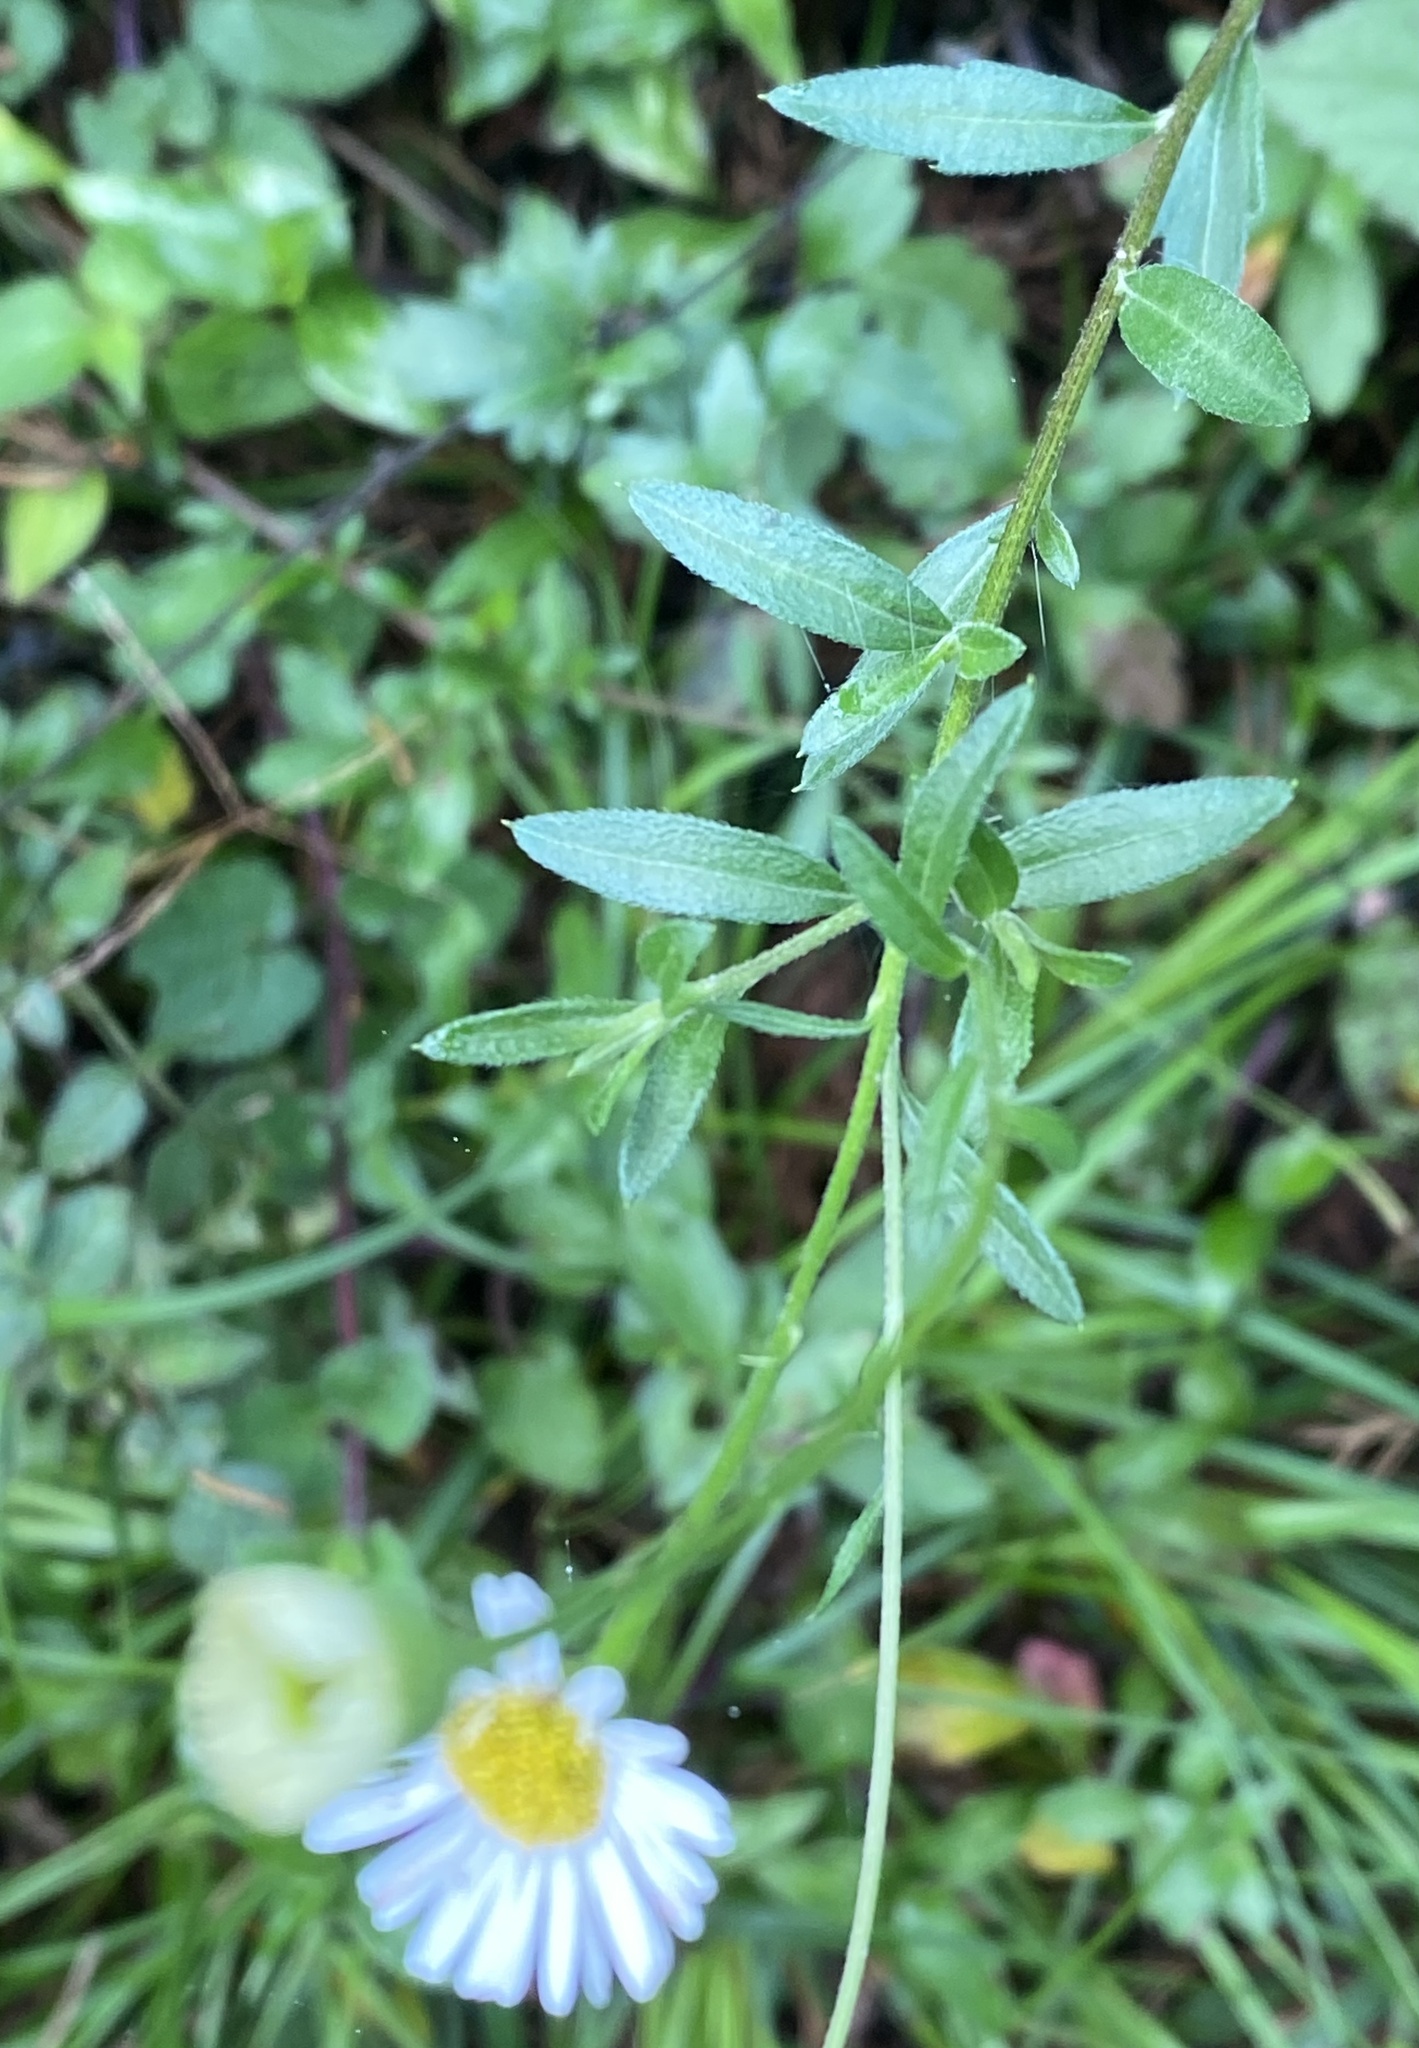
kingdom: Plantae
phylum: Tracheophyta
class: Magnoliopsida
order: Asterales
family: Asteraceae
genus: Erigeron
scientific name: Erigeron strigosus
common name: Common eastern fleabane
